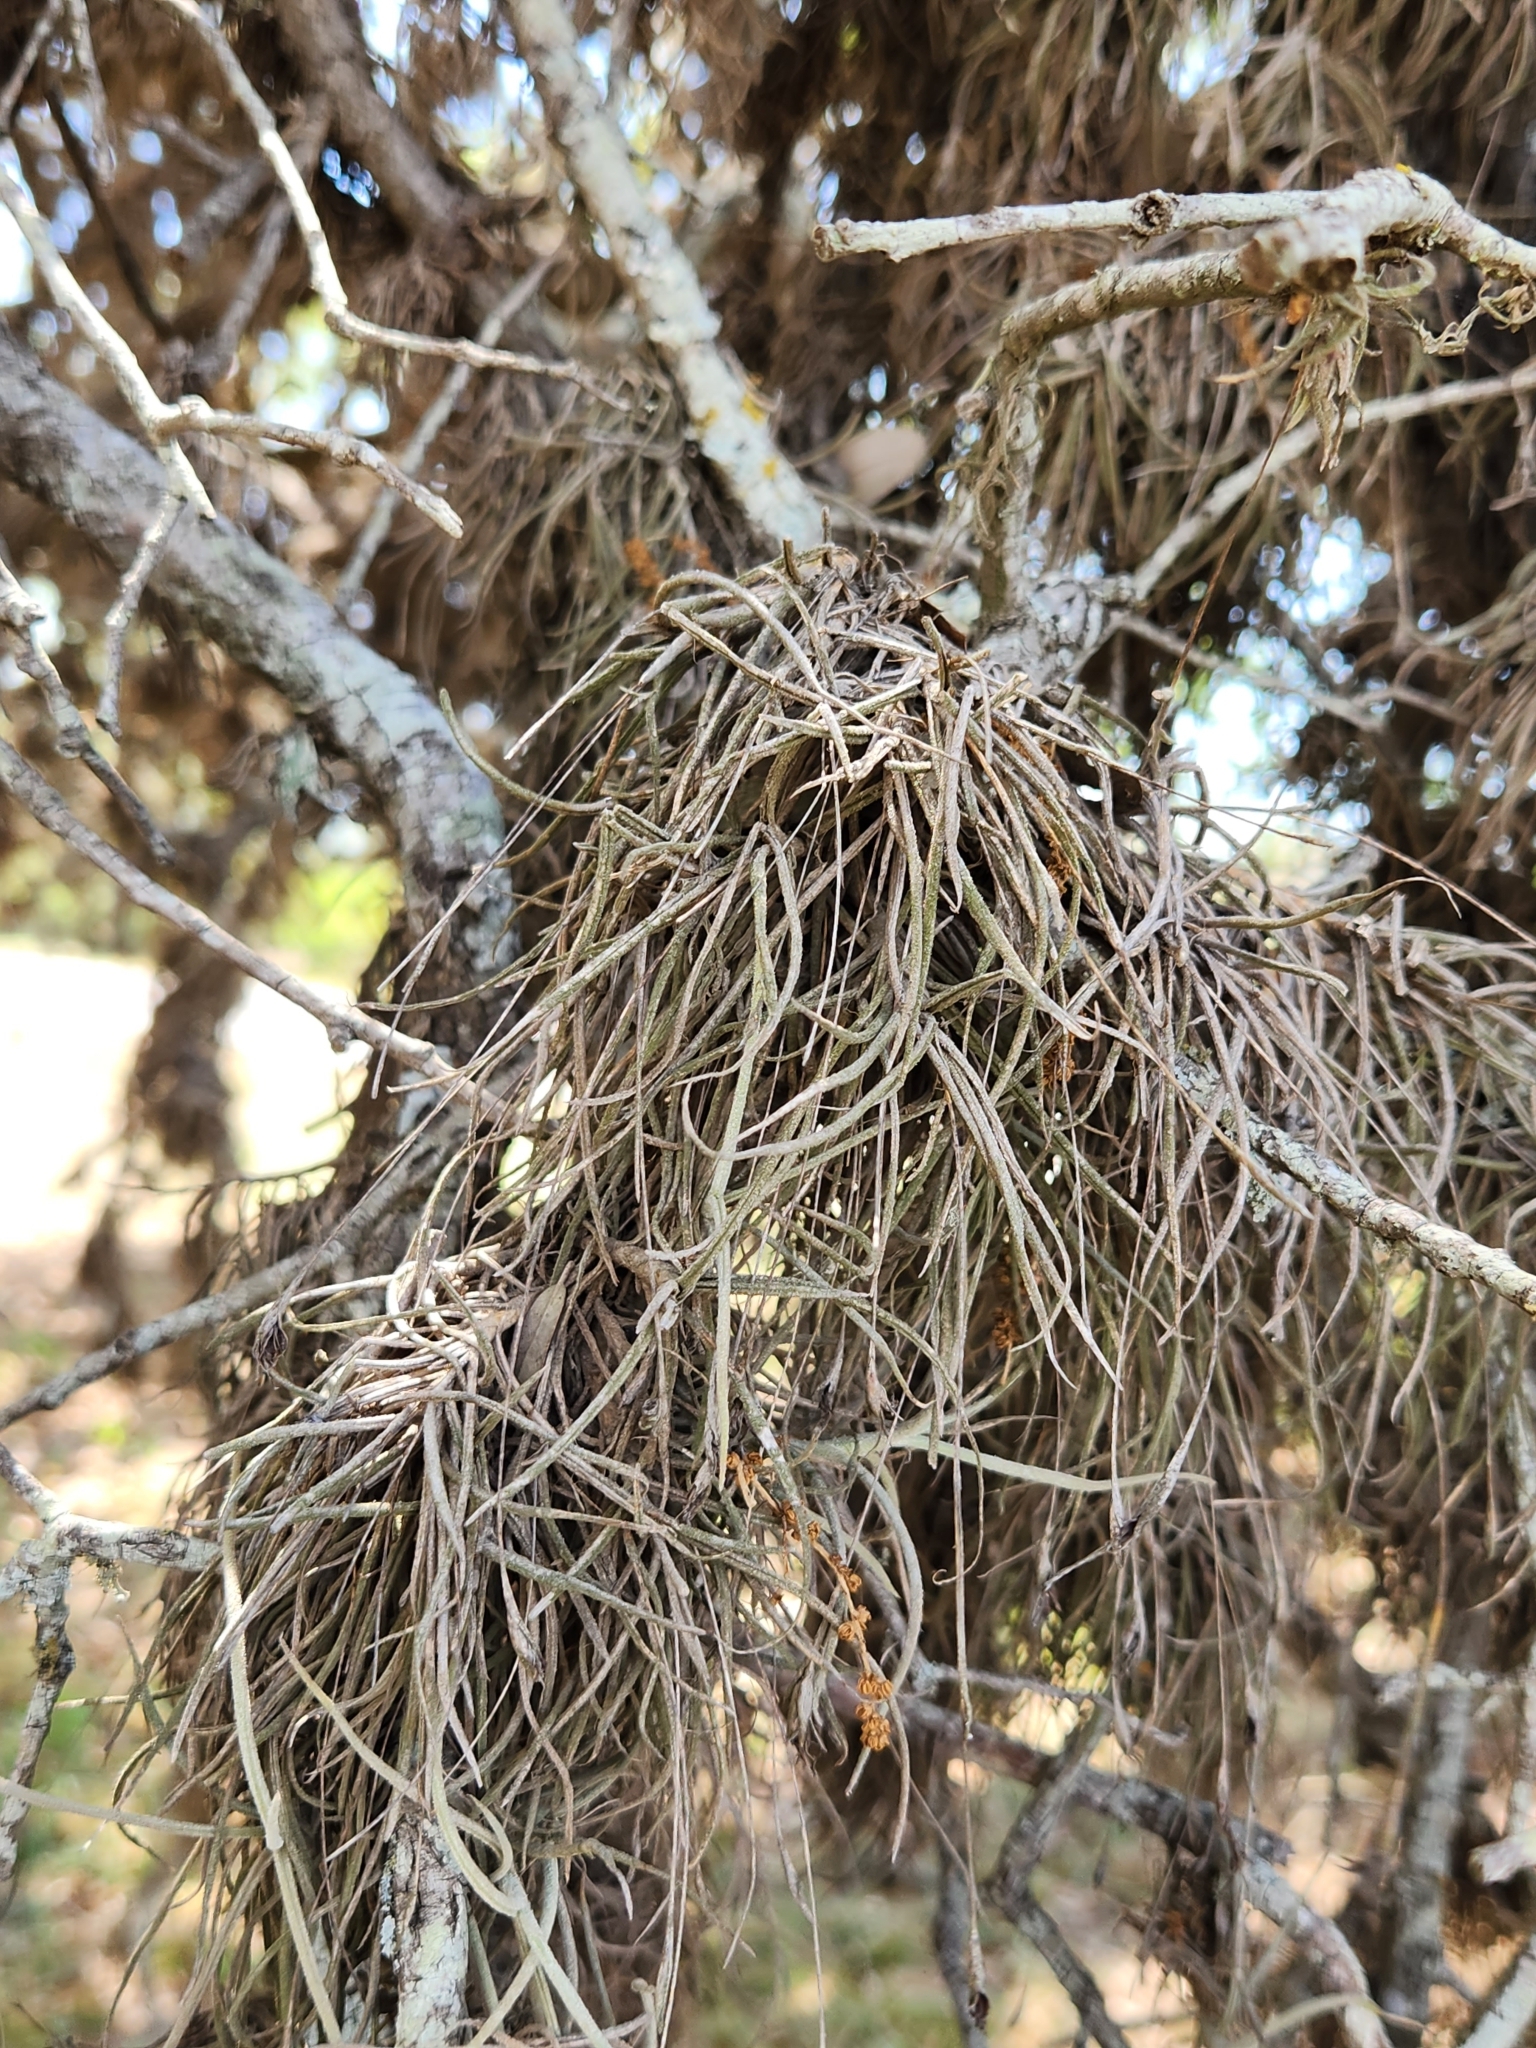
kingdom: Plantae
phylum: Tracheophyta
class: Liliopsida
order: Poales
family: Bromeliaceae
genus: Tillandsia
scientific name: Tillandsia recurvata
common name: Small ballmoss
